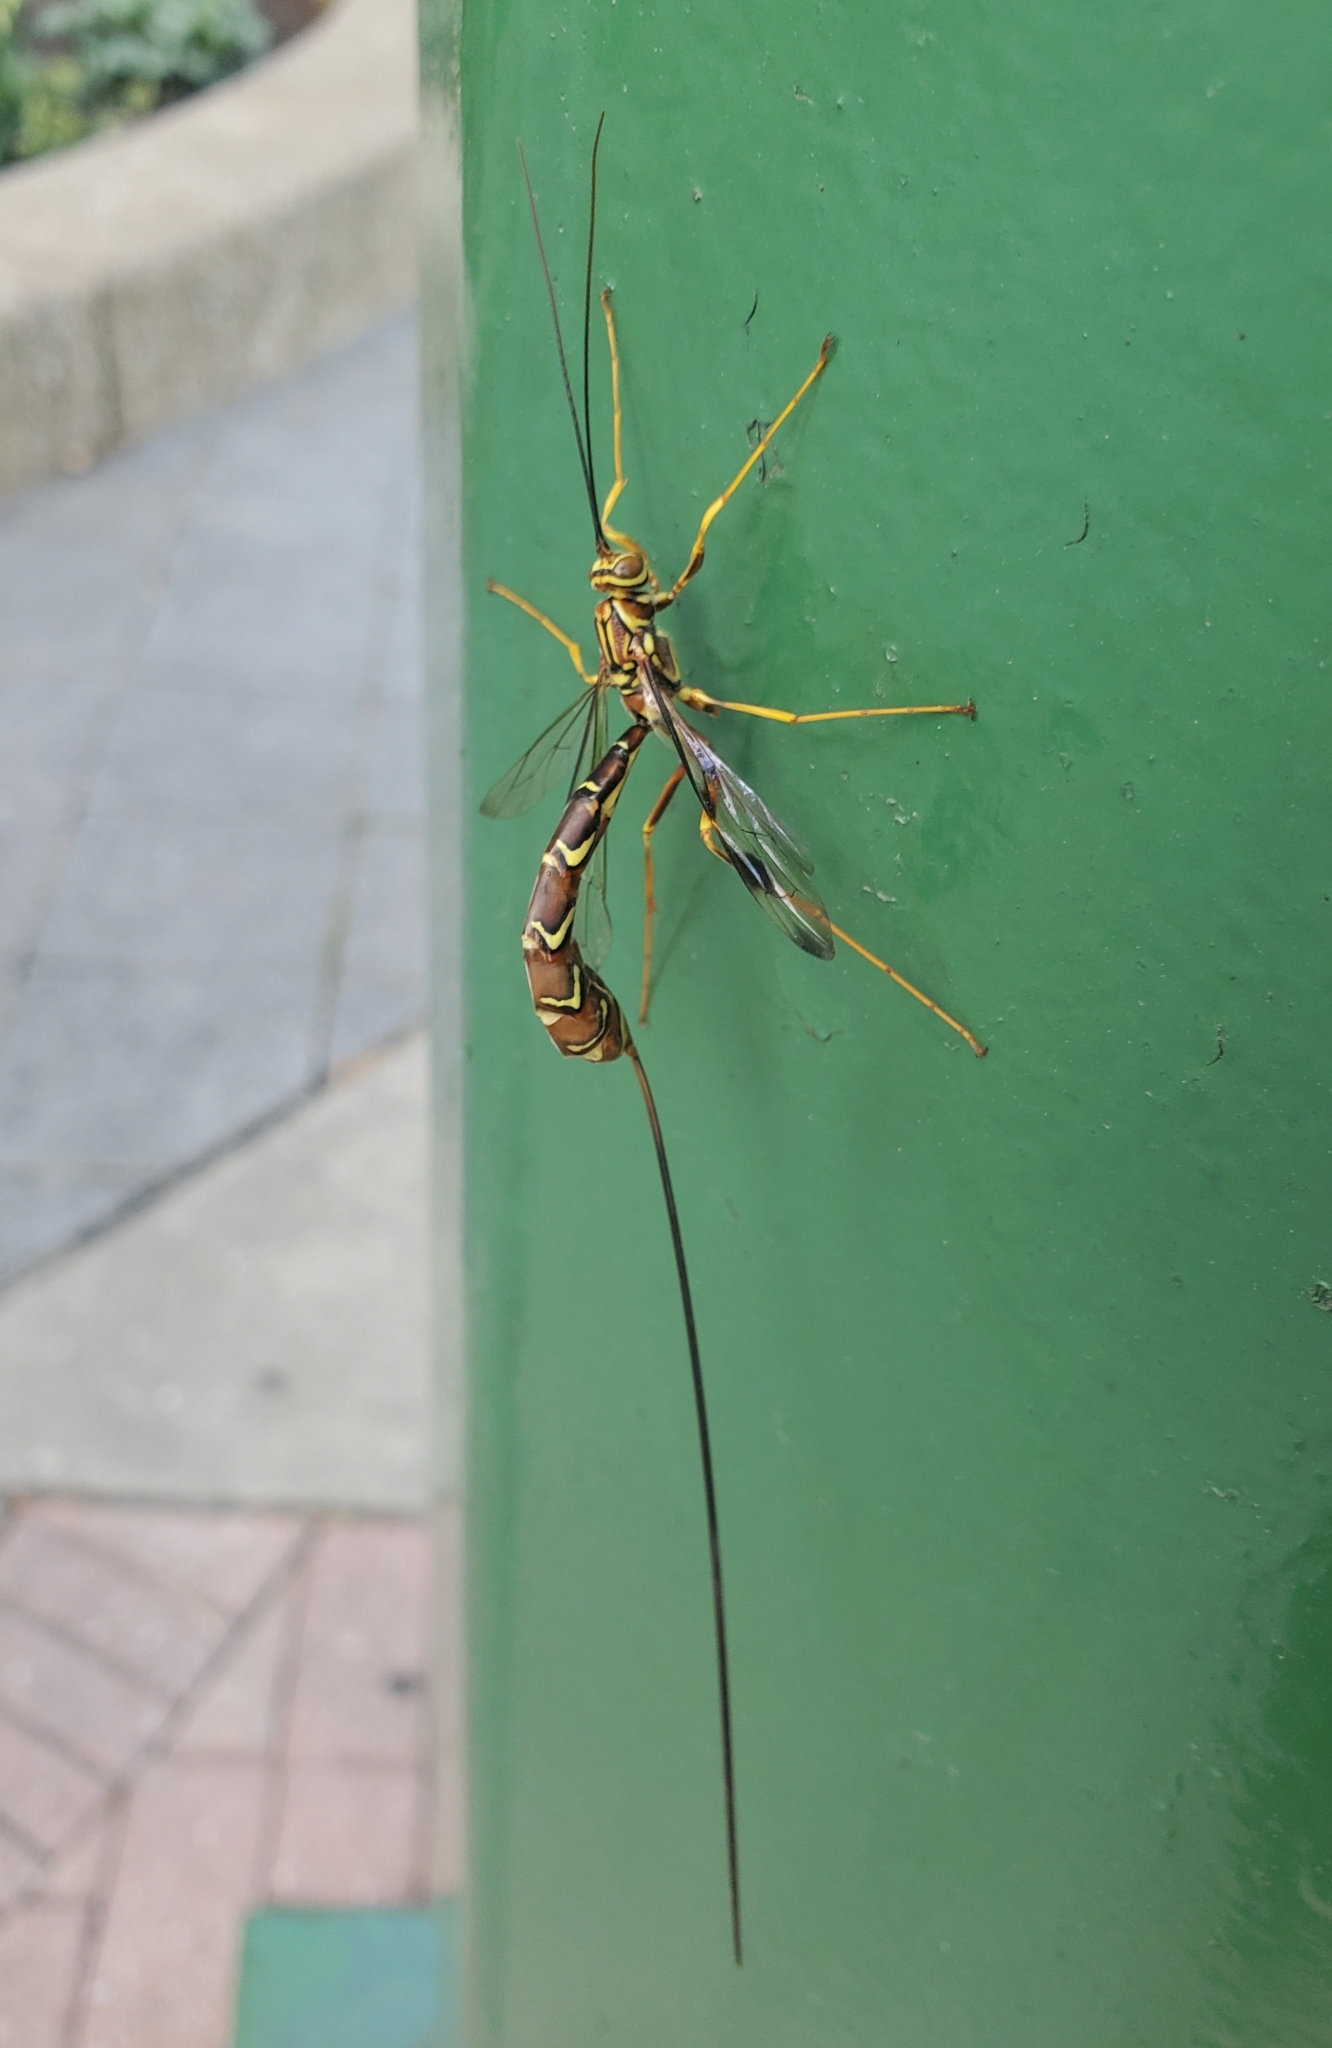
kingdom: Animalia
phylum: Arthropoda
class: Insecta
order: Hymenoptera
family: Ichneumonidae
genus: Megarhyssa
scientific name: Megarhyssa macrura
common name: Long-tailed giant ichneumonid wasp
